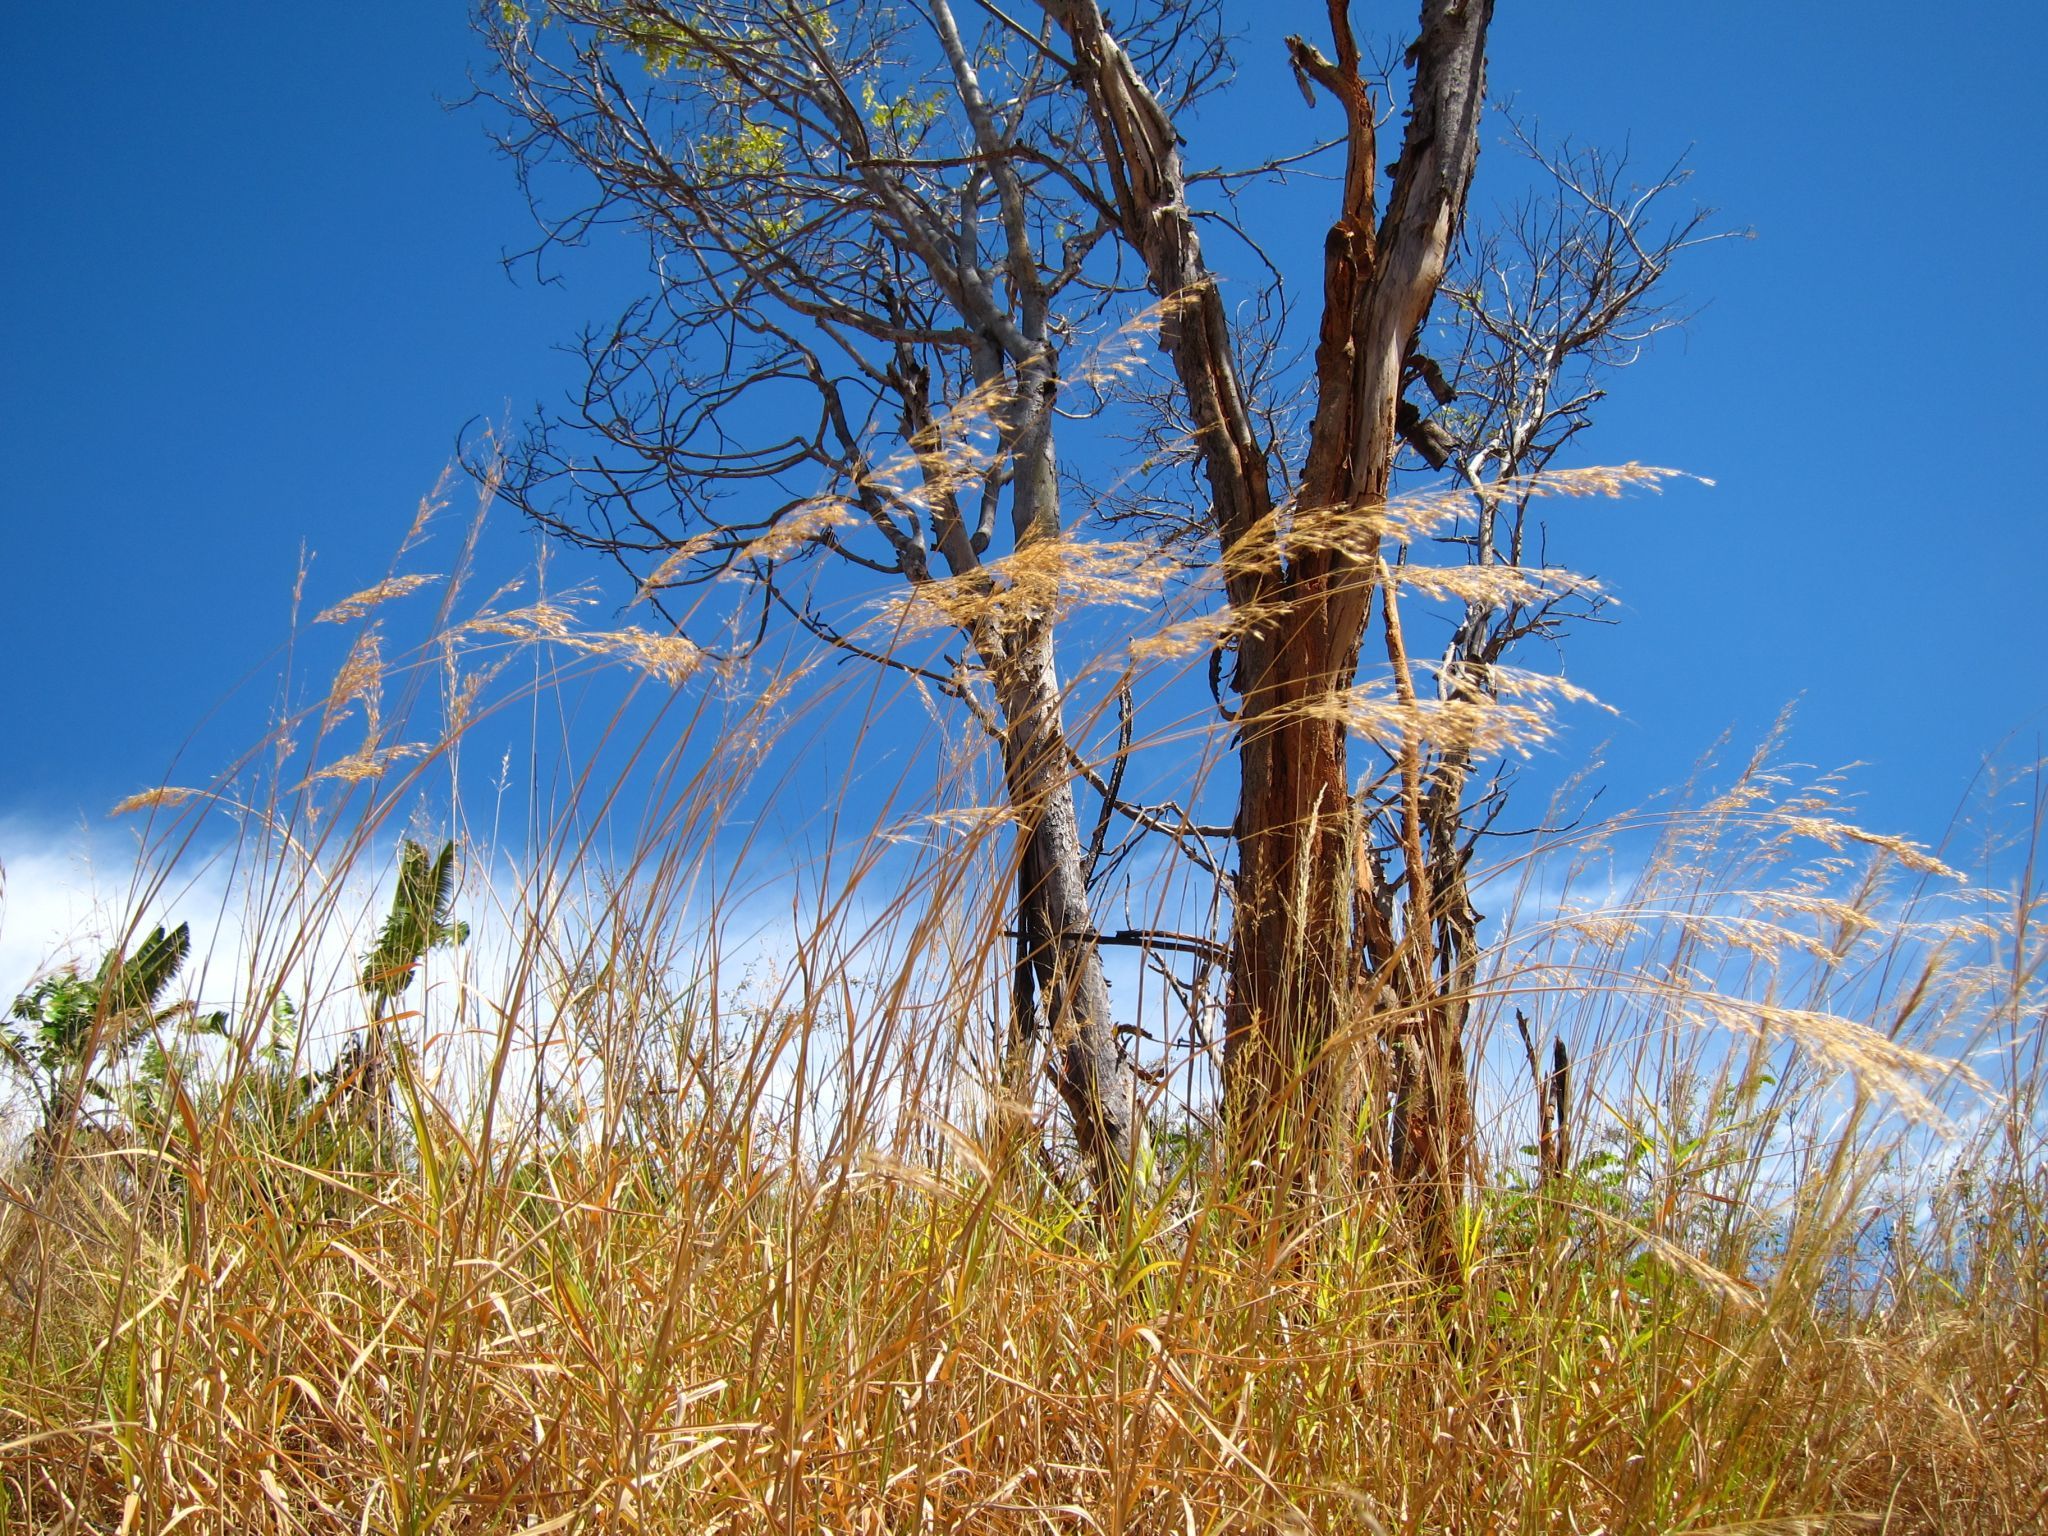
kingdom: Plantae
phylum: Tracheophyta
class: Liliopsida
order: Poales
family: Poaceae
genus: Chrysopogon
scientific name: Chrysopogon serrulatus
